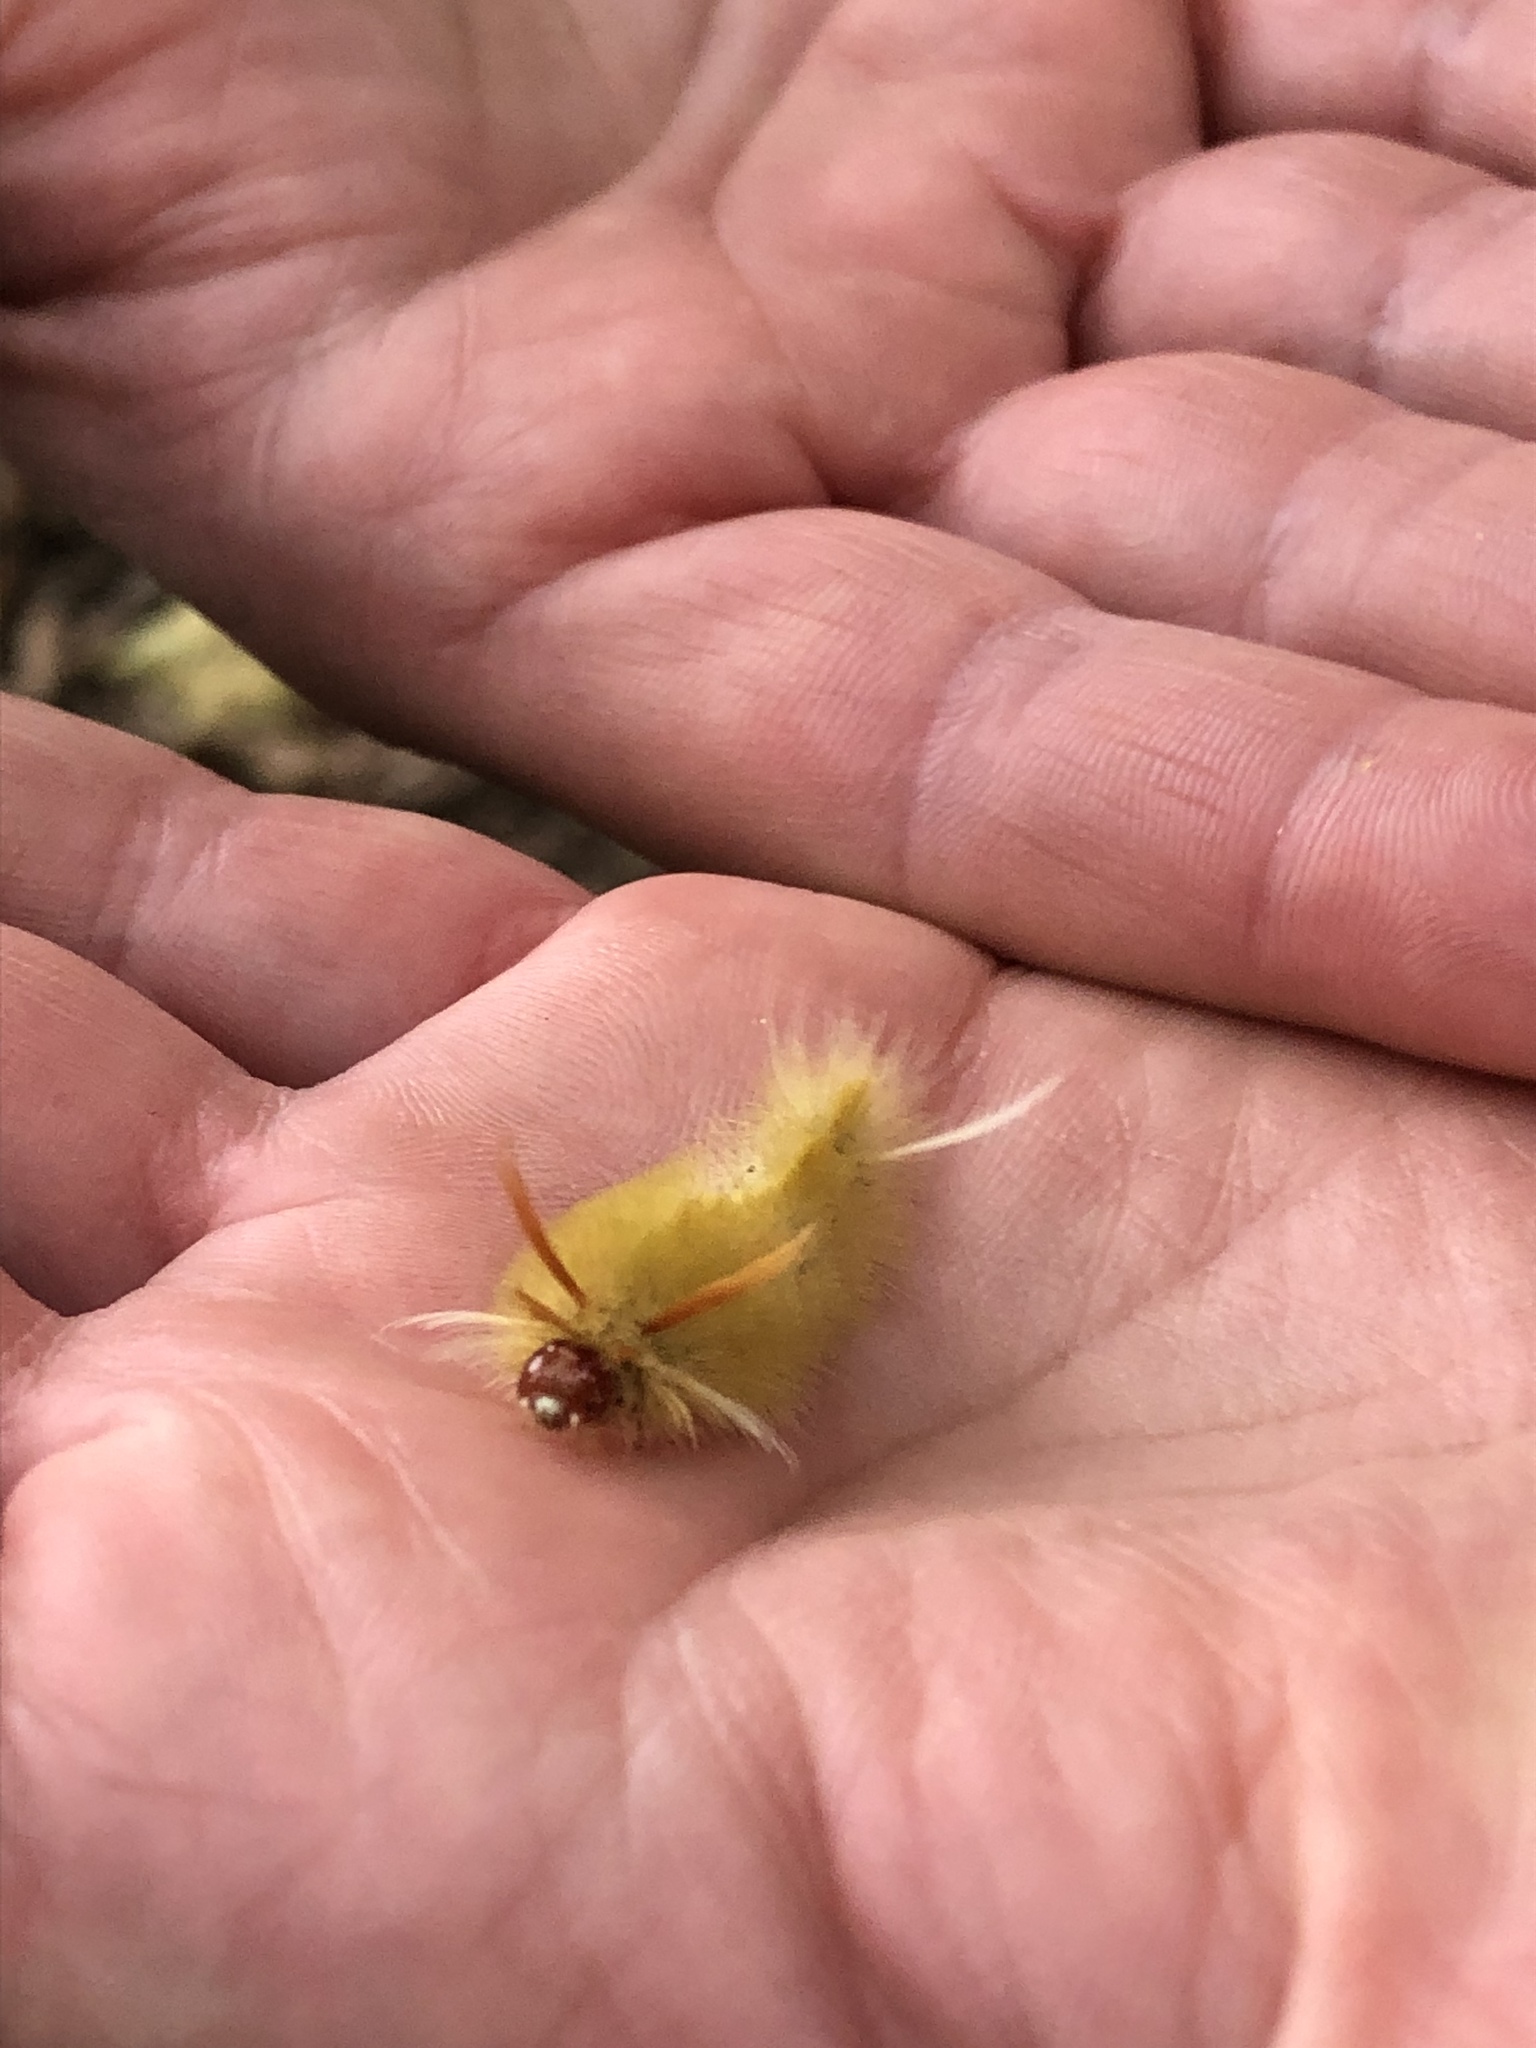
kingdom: Animalia
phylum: Arthropoda
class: Insecta
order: Lepidoptera
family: Erebidae
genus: Halysidota
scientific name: Halysidota harrisii
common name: Sycamore tussock moth
